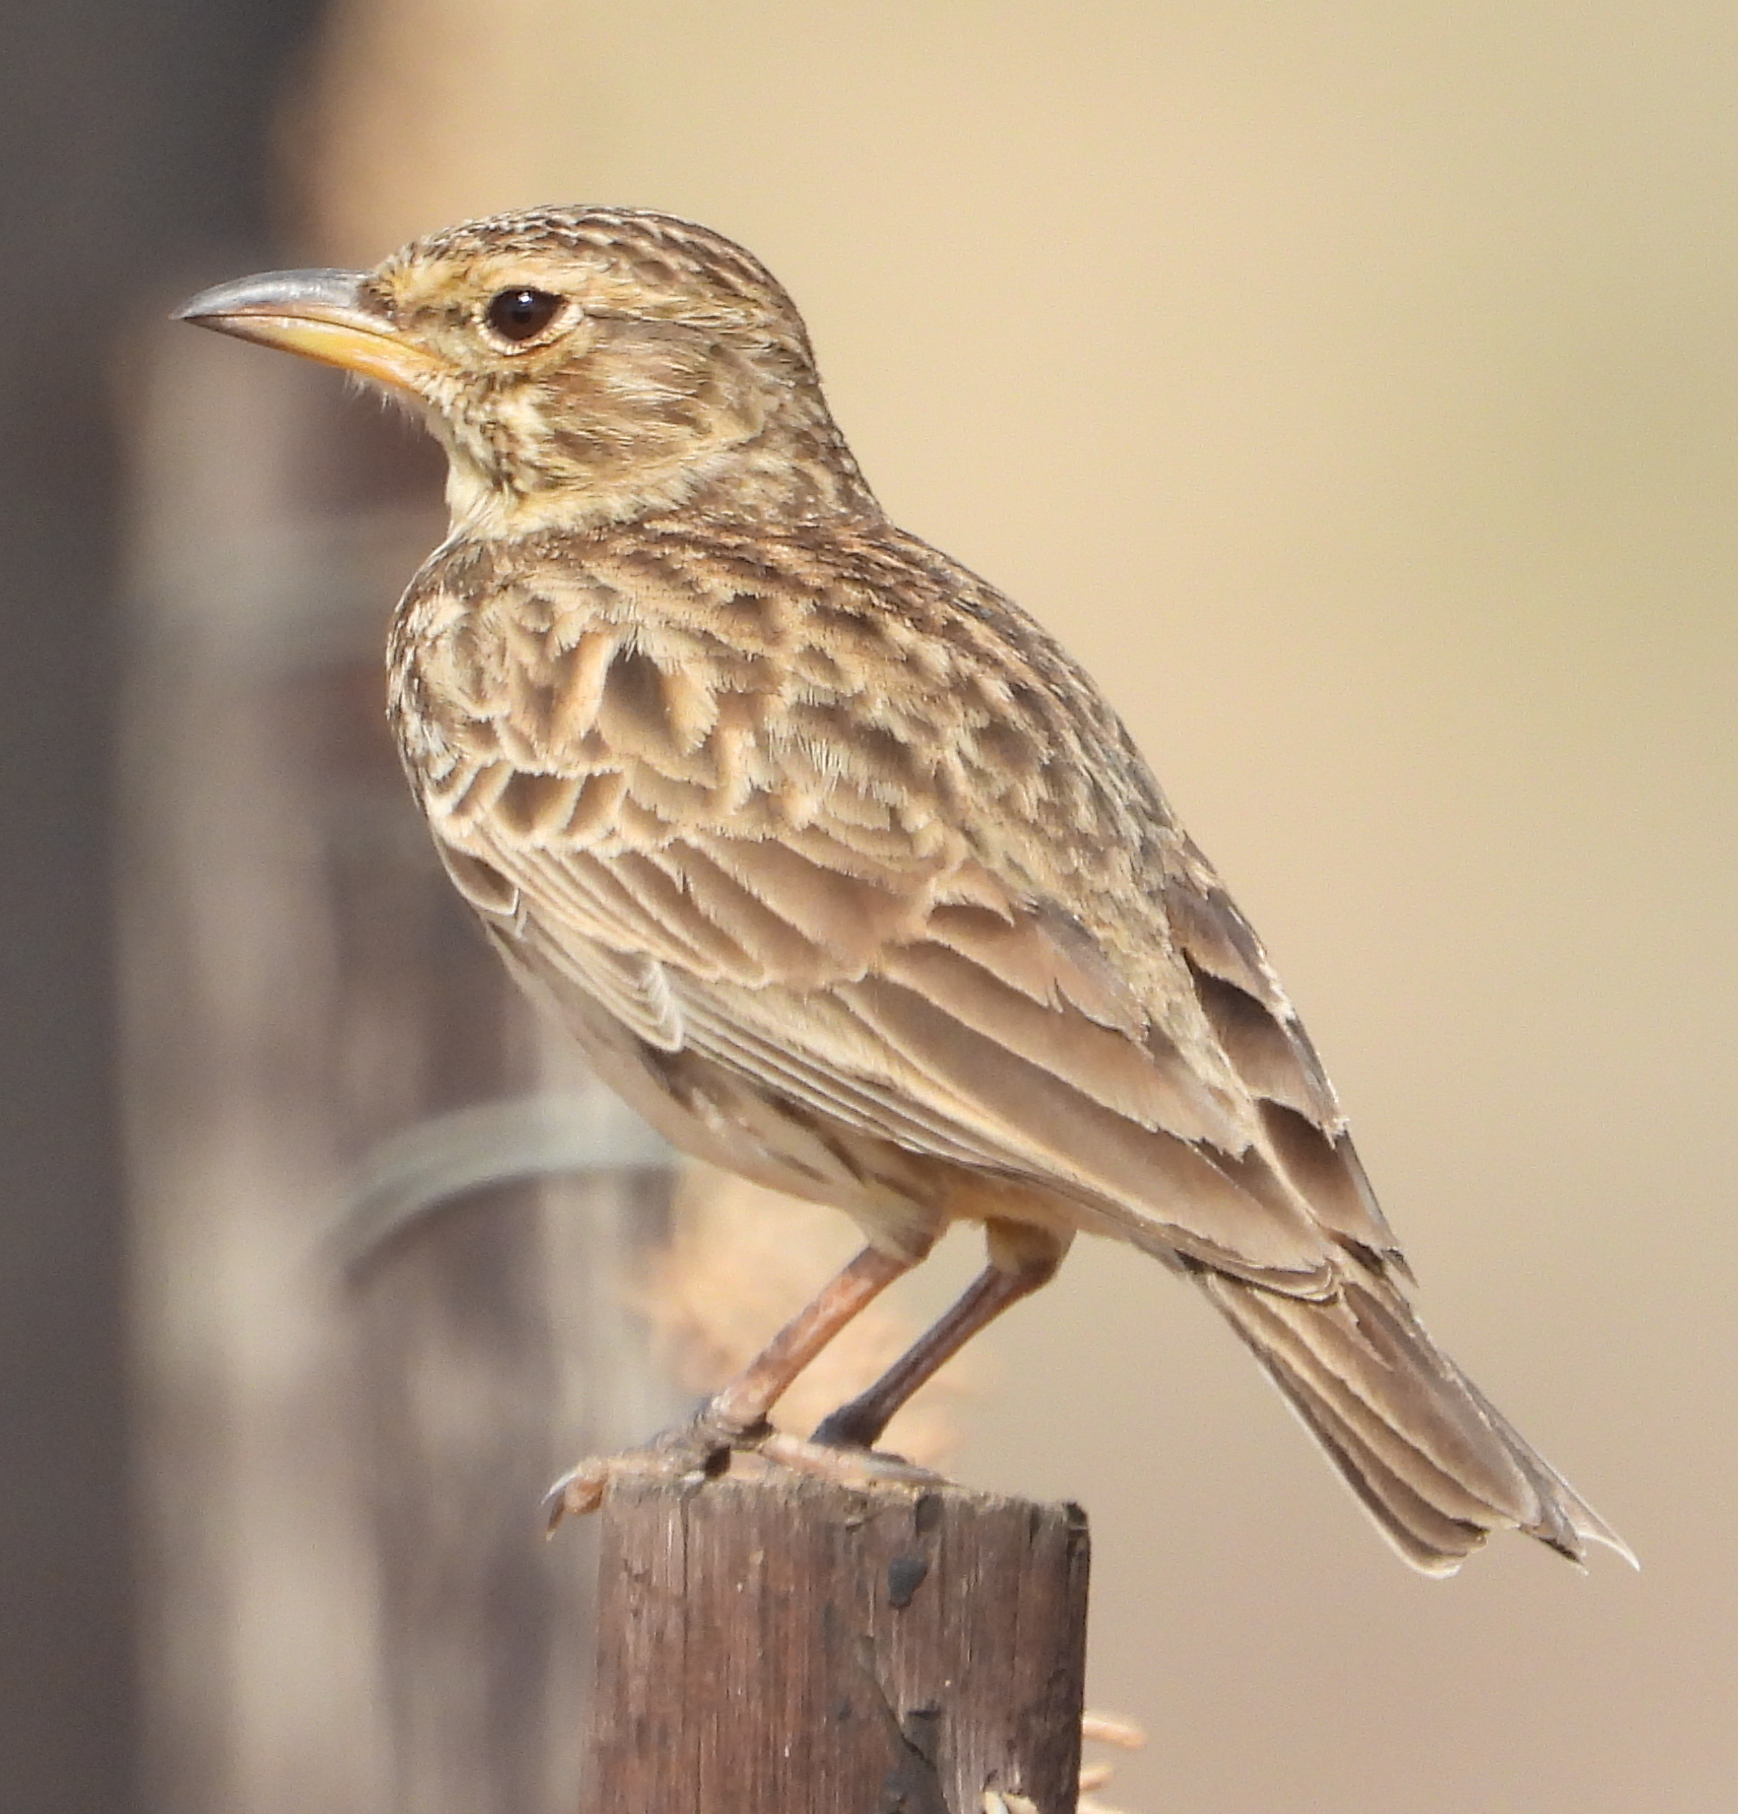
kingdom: Animalia
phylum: Chordata
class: Aves
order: Passeriformes
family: Alaudidae
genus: Galerida
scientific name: Galerida magnirostris
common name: Large-billed lark
